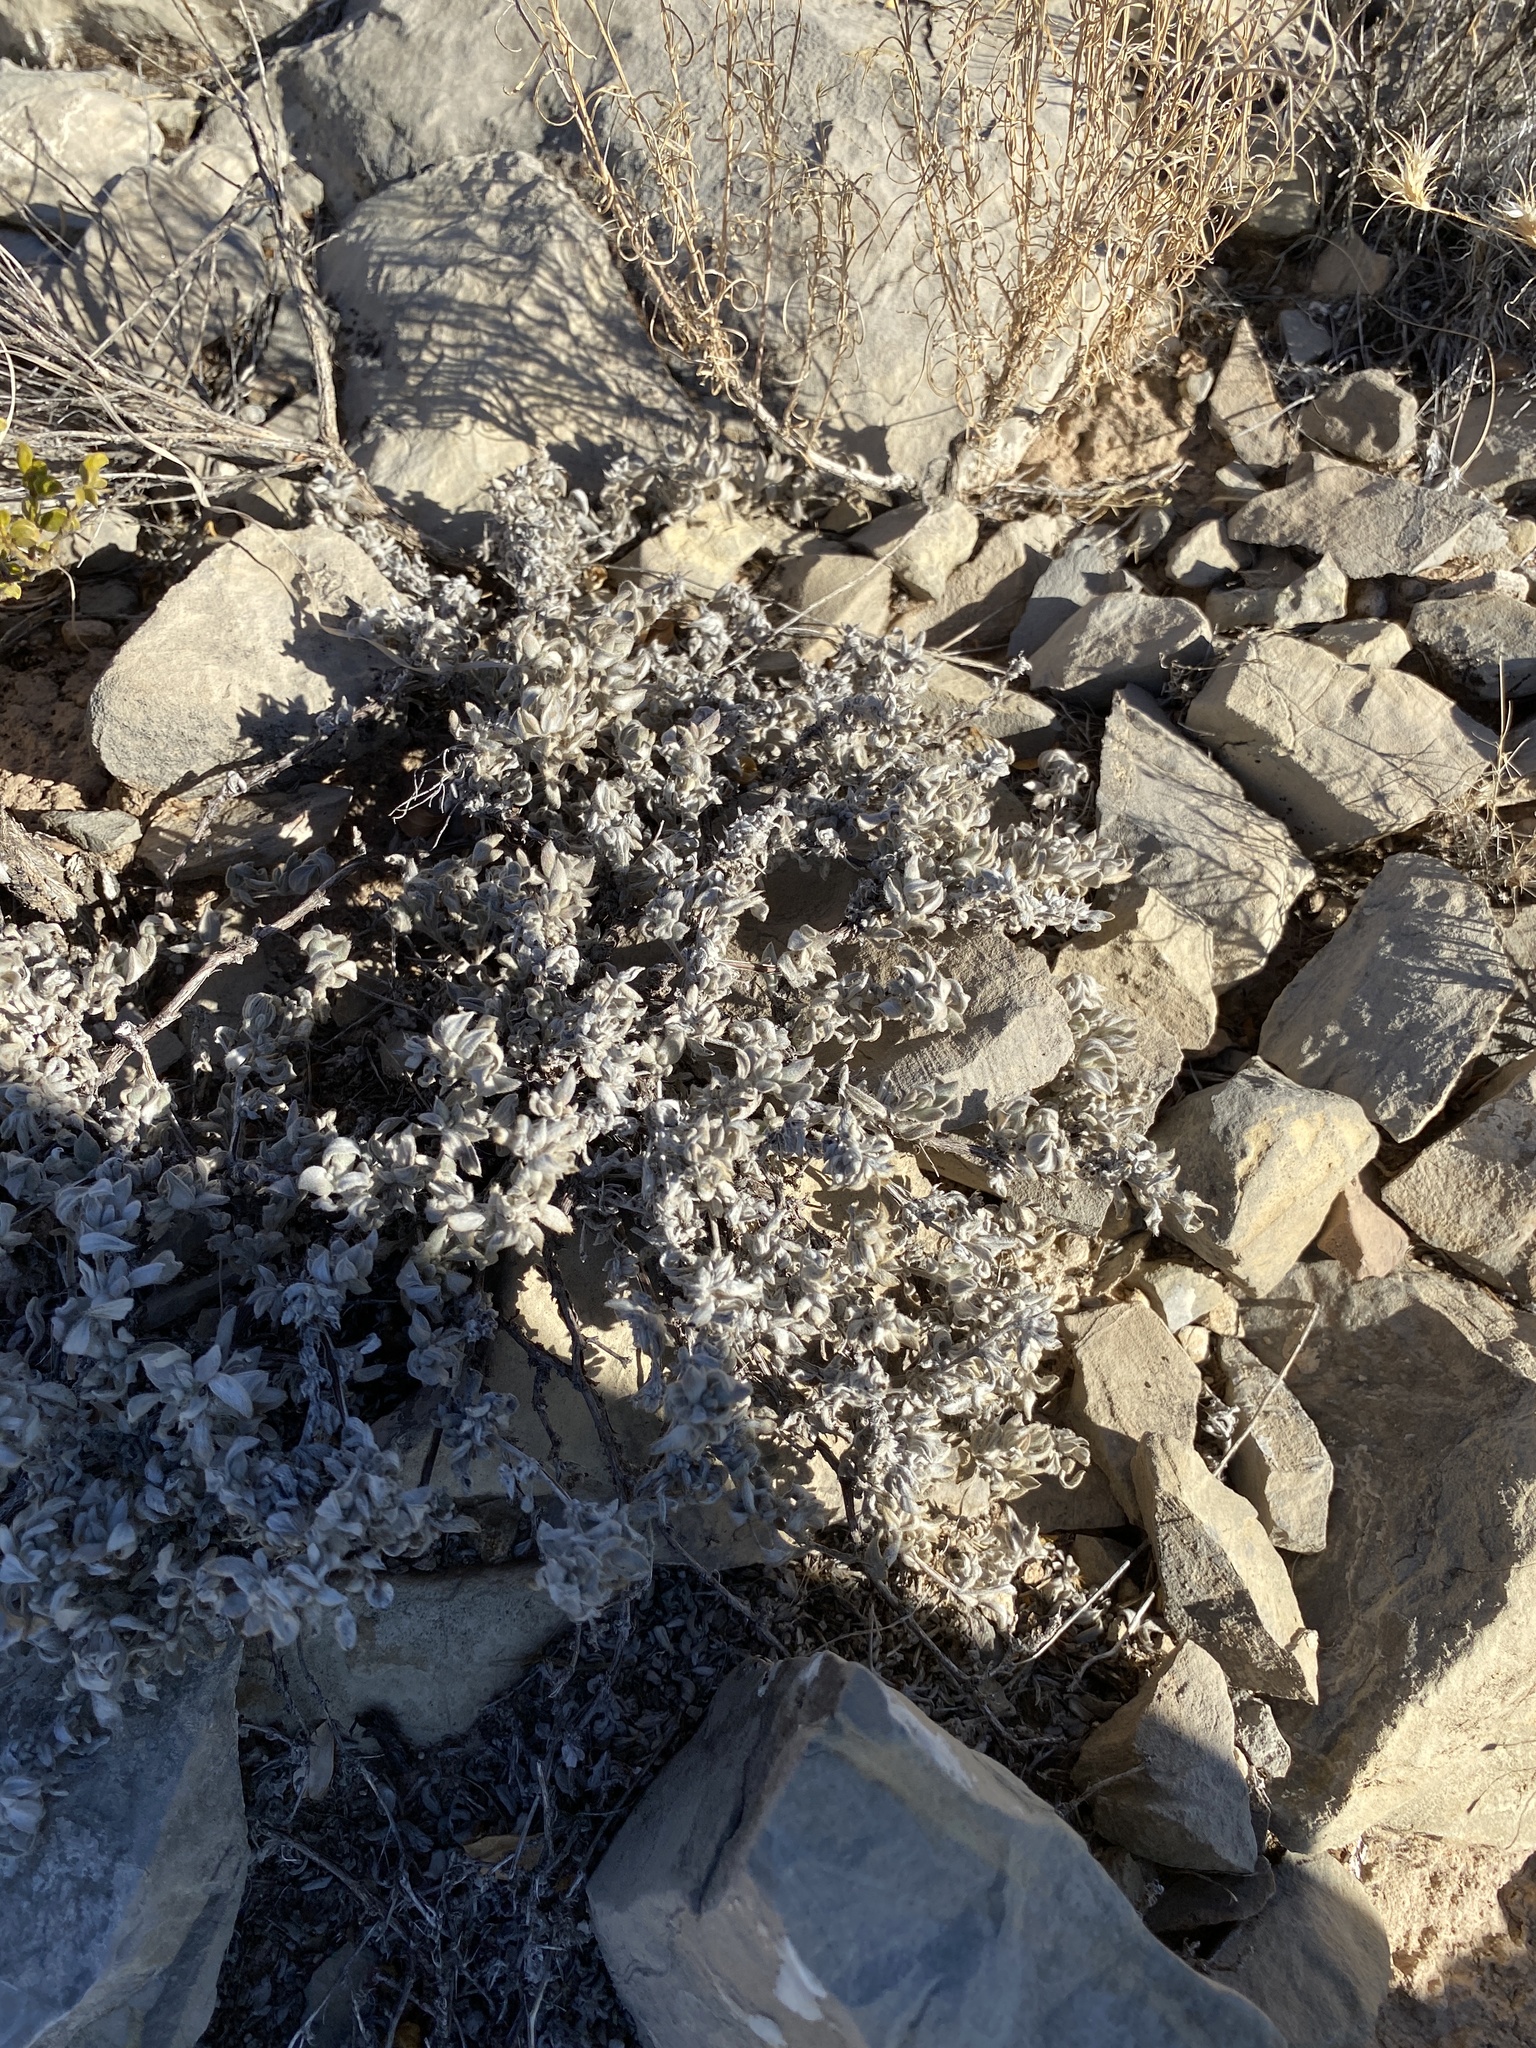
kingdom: Plantae
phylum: Tracheophyta
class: Magnoliopsida
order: Boraginales
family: Ehretiaceae
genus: Tiquilia
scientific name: Tiquilia canescens
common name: Hairy tiquilia
